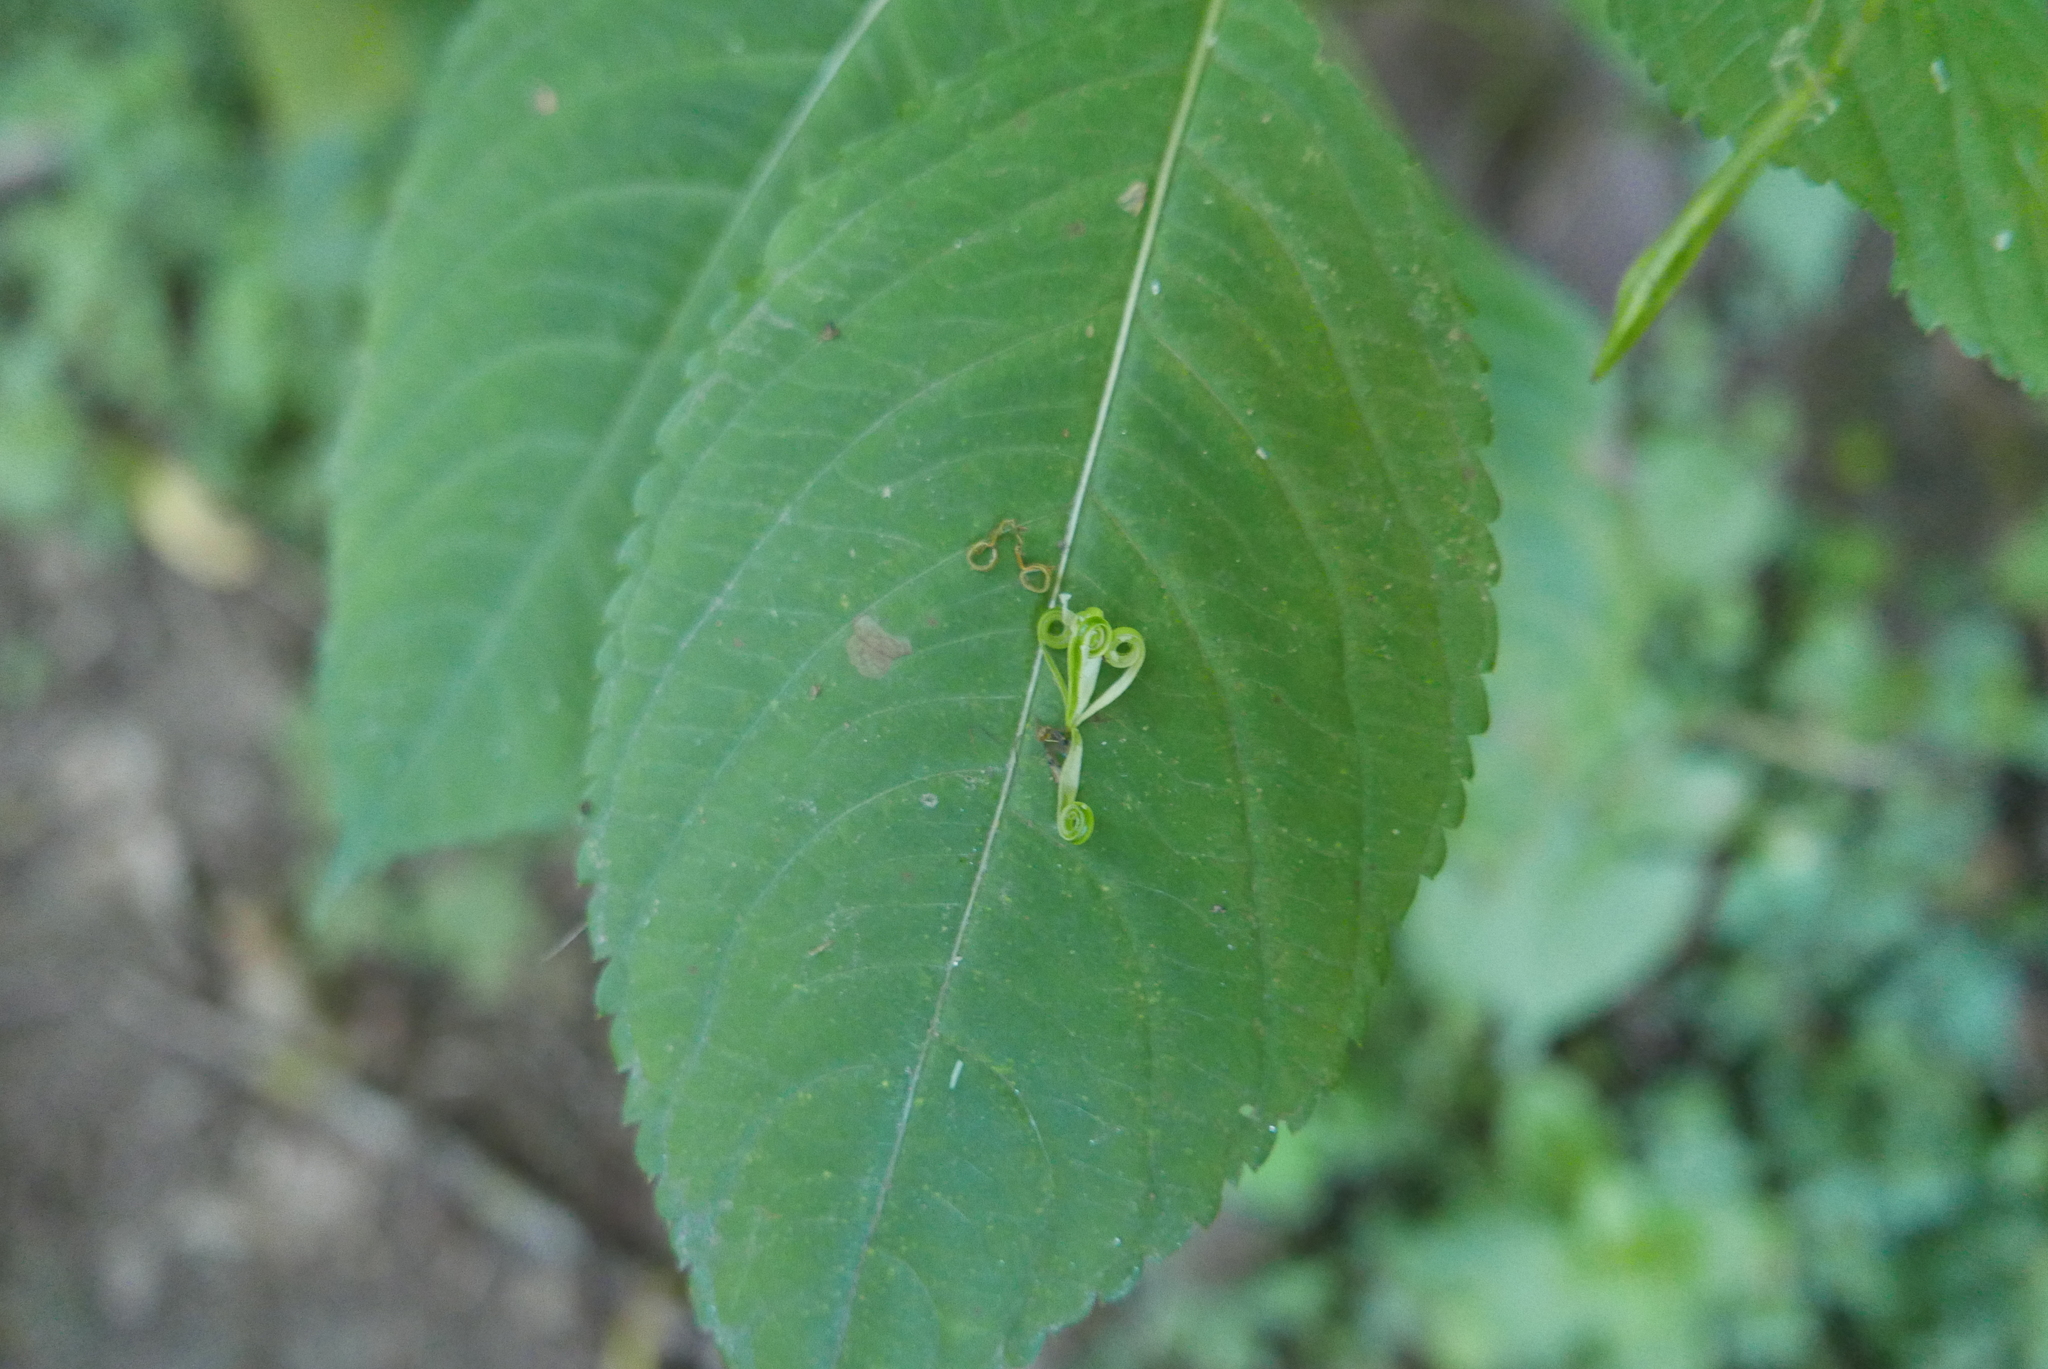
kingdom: Plantae
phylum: Tracheophyta
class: Magnoliopsida
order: Ericales
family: Balsaminaceae
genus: Impatiens
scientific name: Impatiens parviflora
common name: Small balsam
